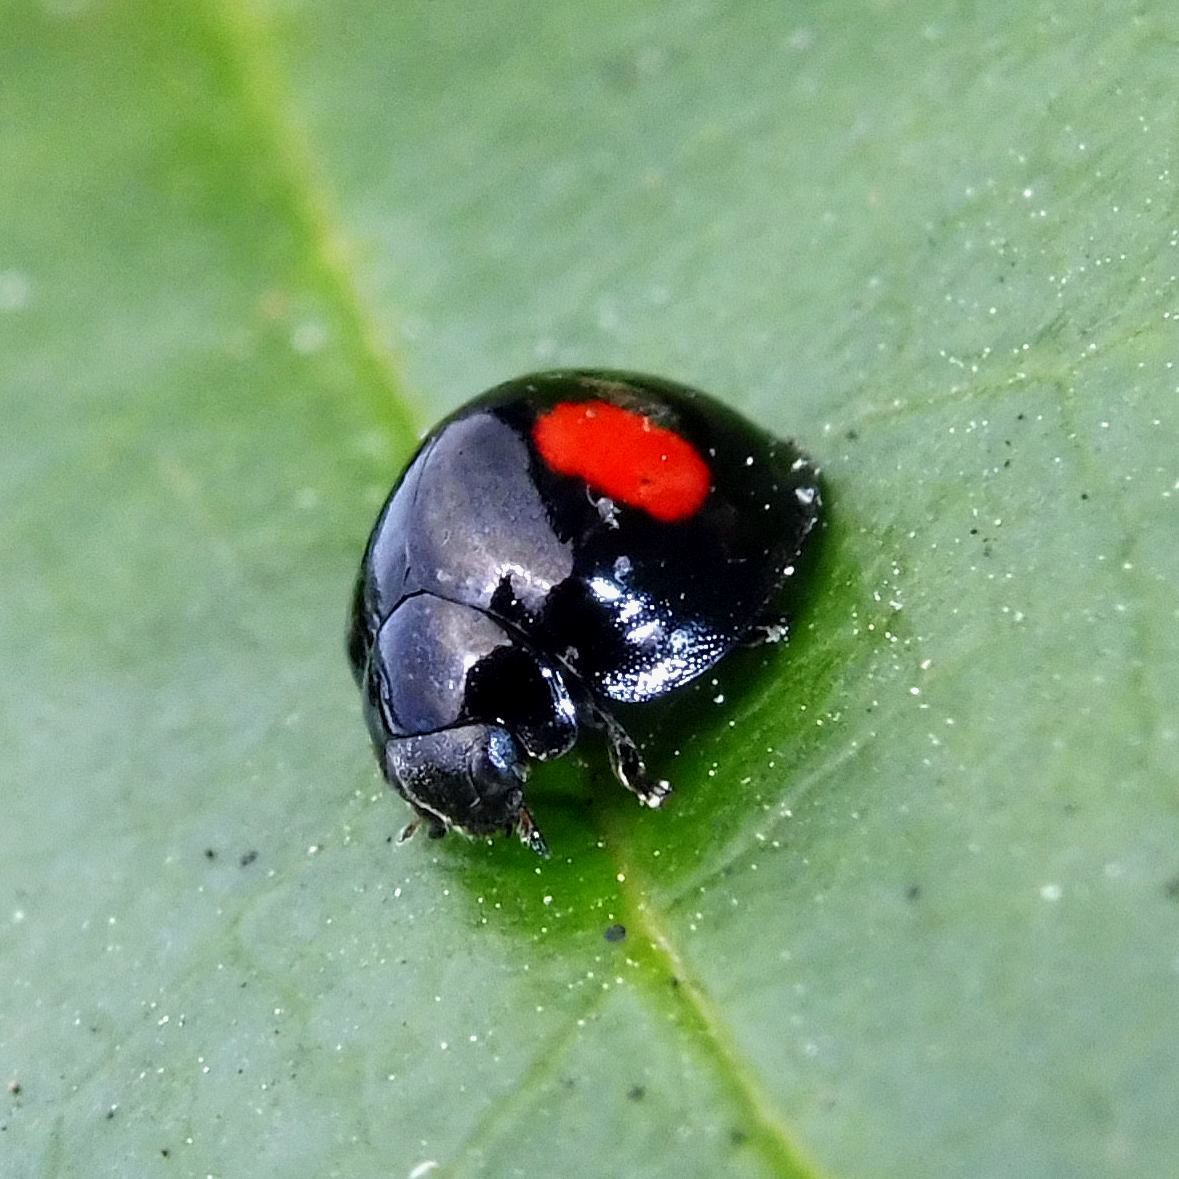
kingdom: Animalia
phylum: Arthropoda
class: Insecta
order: Coleoptera
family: Coccinellidae
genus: Chilocorus
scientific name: Chilocorus renipustulatus
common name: Kidney-spot ladybird
